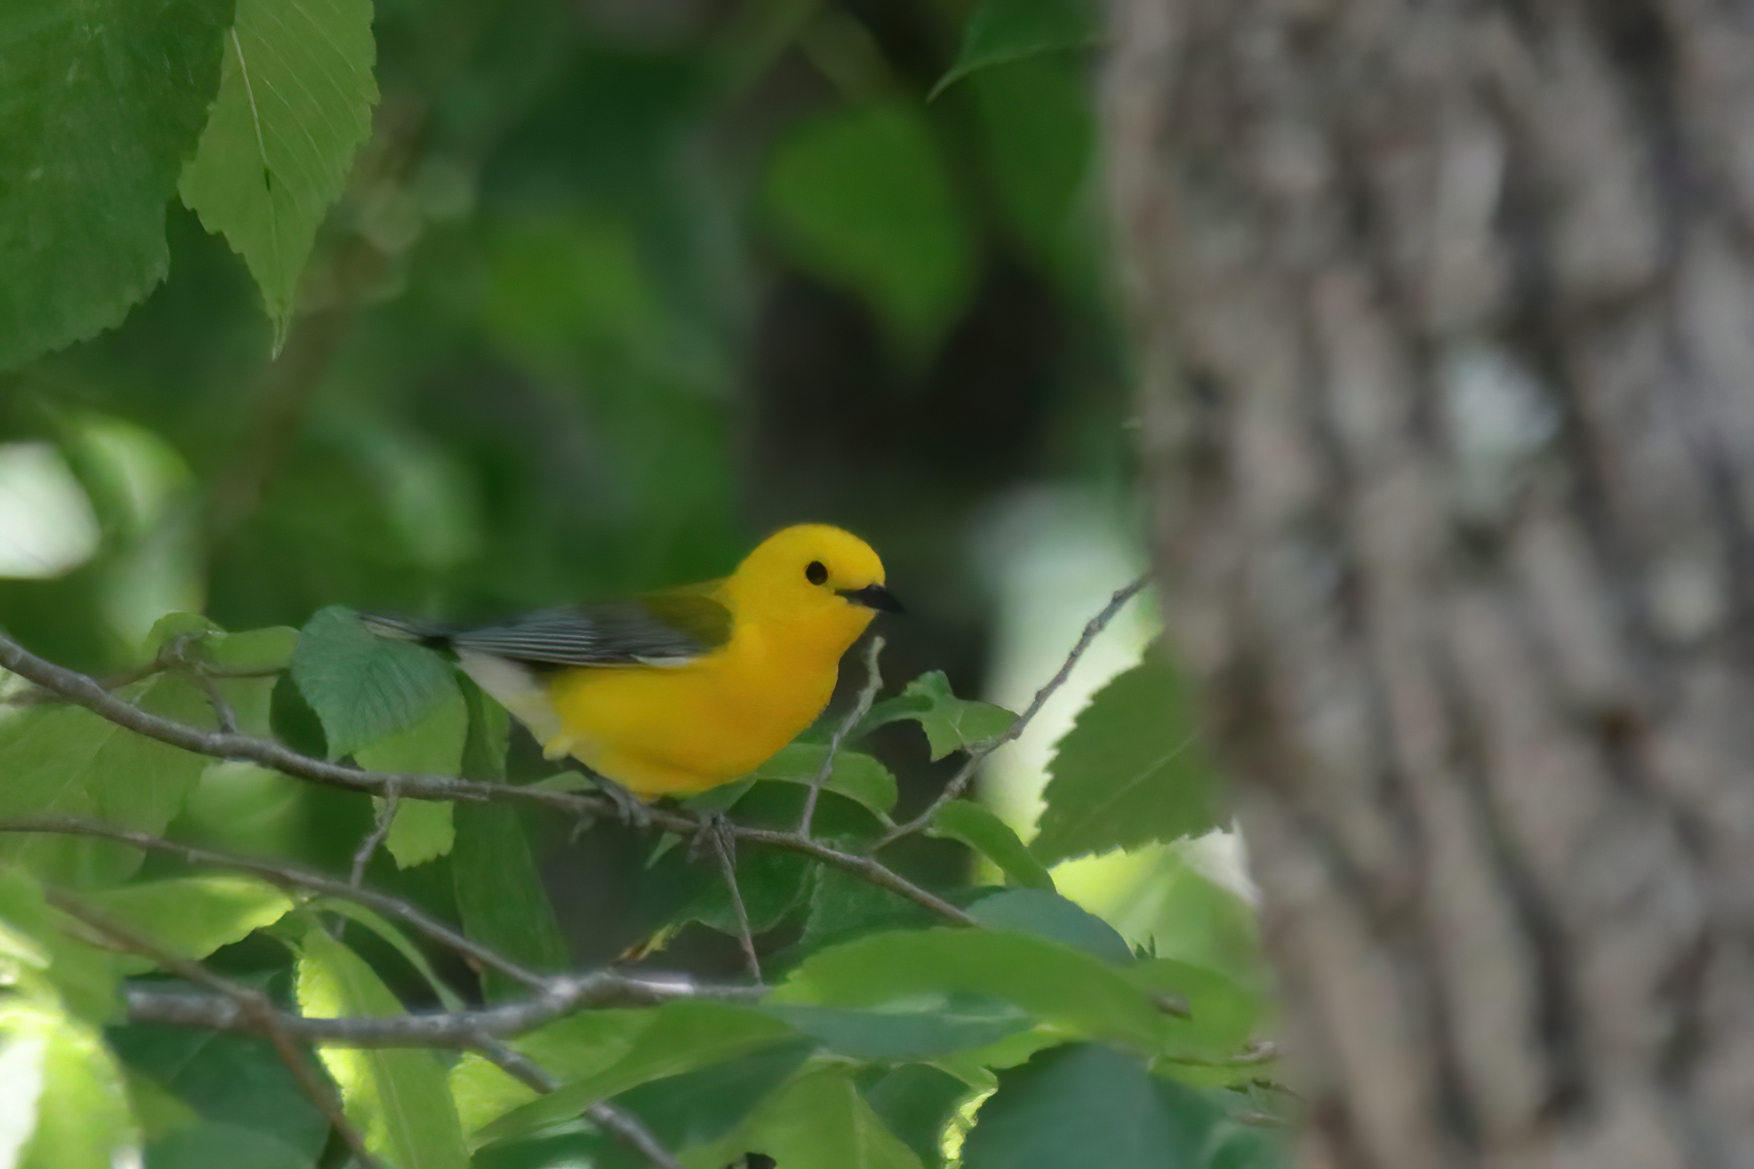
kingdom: Animalia
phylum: Chordata
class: Aves
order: Passeriformes
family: Parulidae
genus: Protonotaria
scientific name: Protonotaria citrea
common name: Prothonotary warbler
